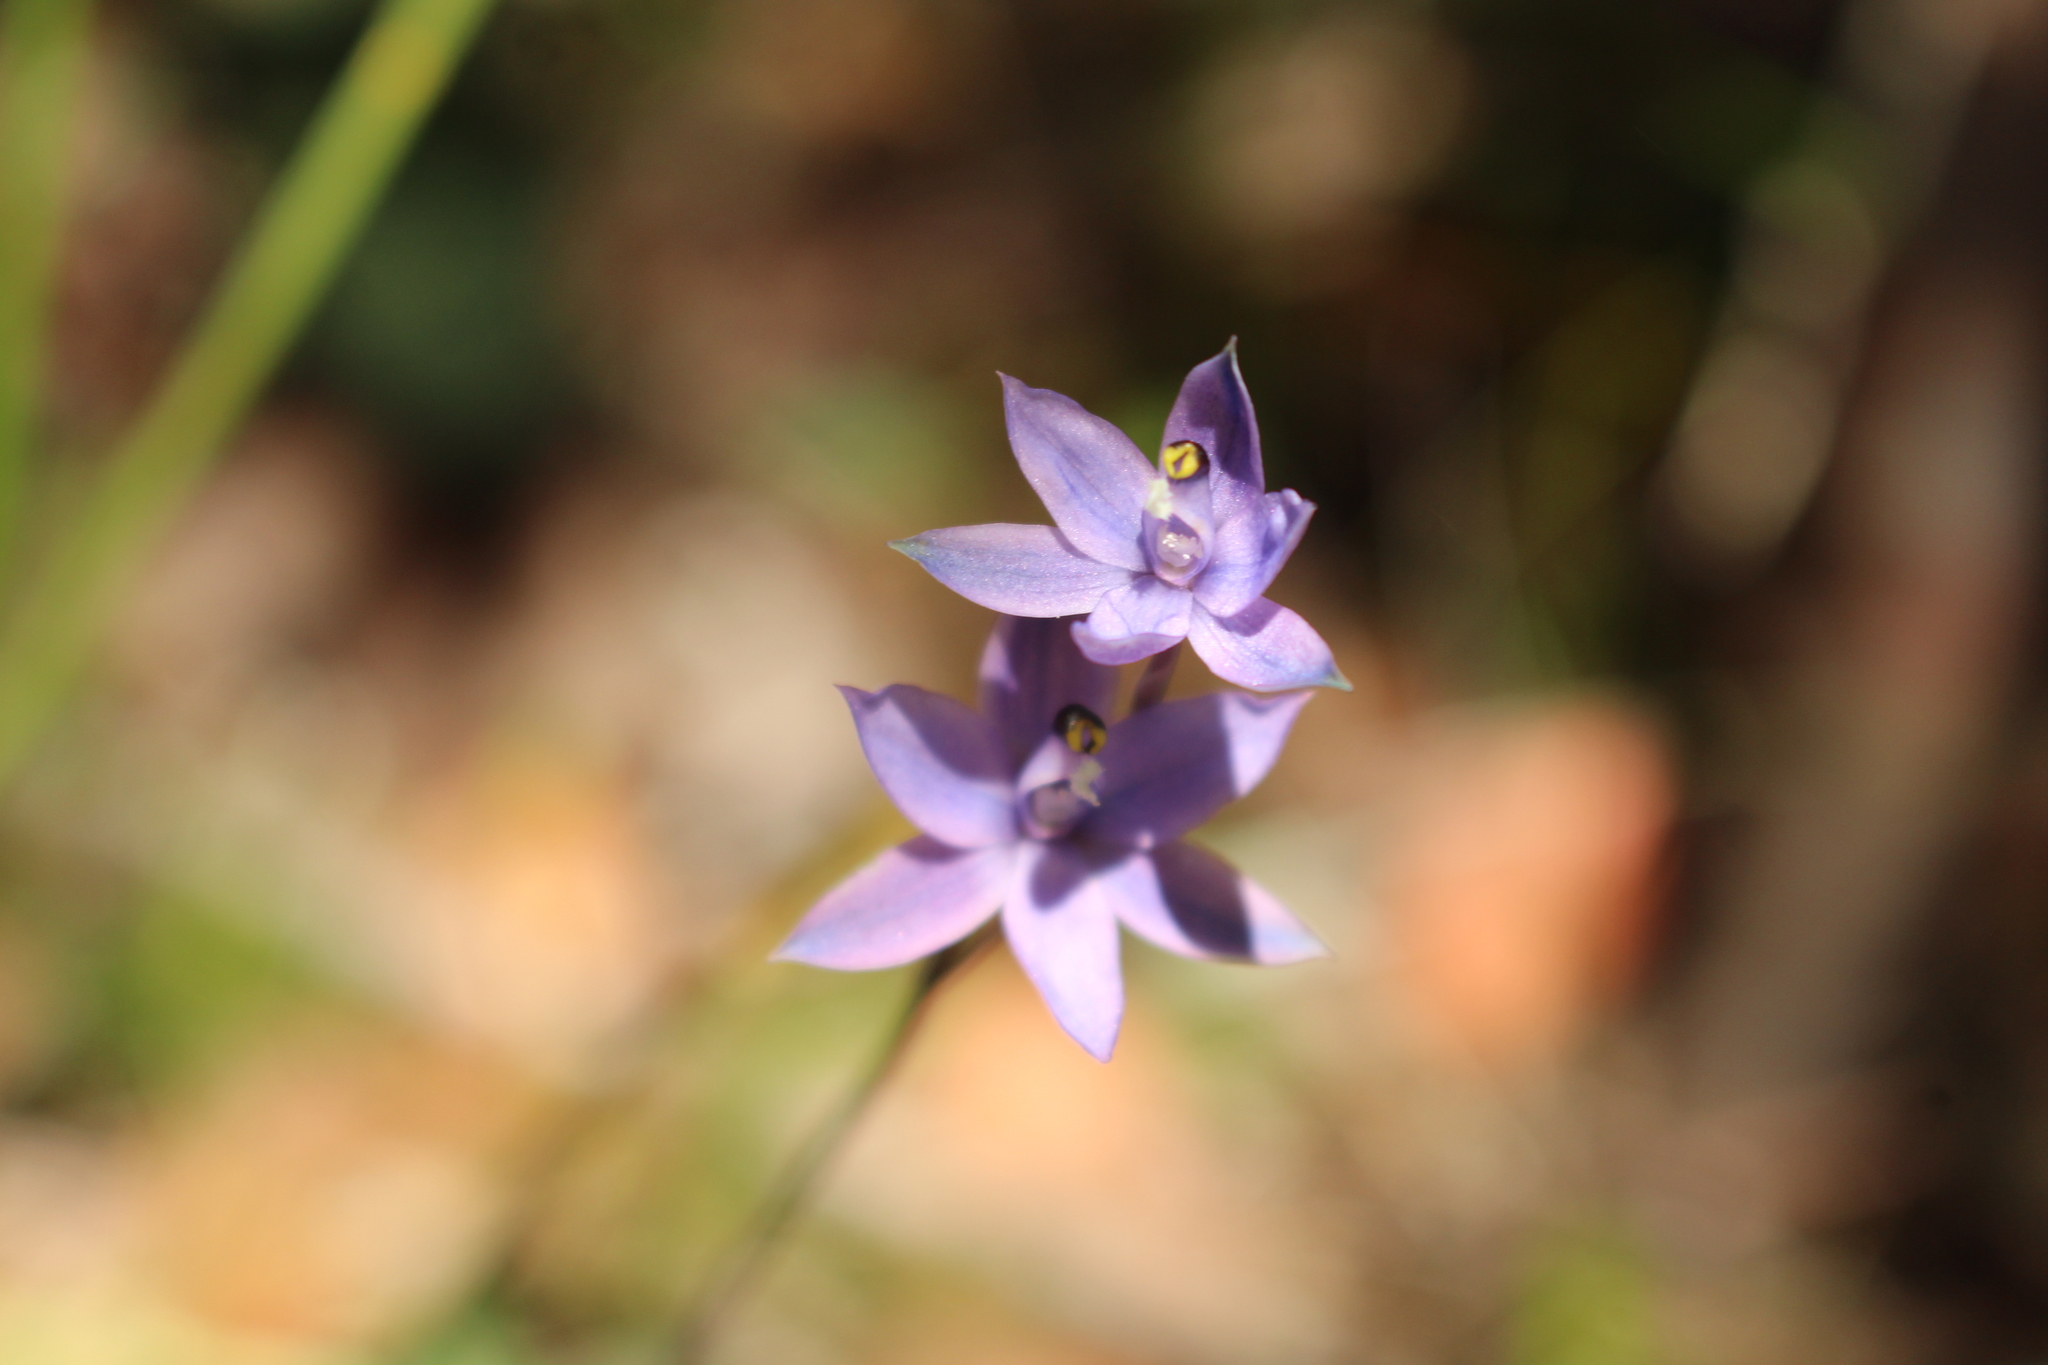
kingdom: Plantae
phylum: Tracheophyta
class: Liliopsida
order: Asparagales
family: Orchidaceae
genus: Thelymitra
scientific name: Thelymitra graminea
